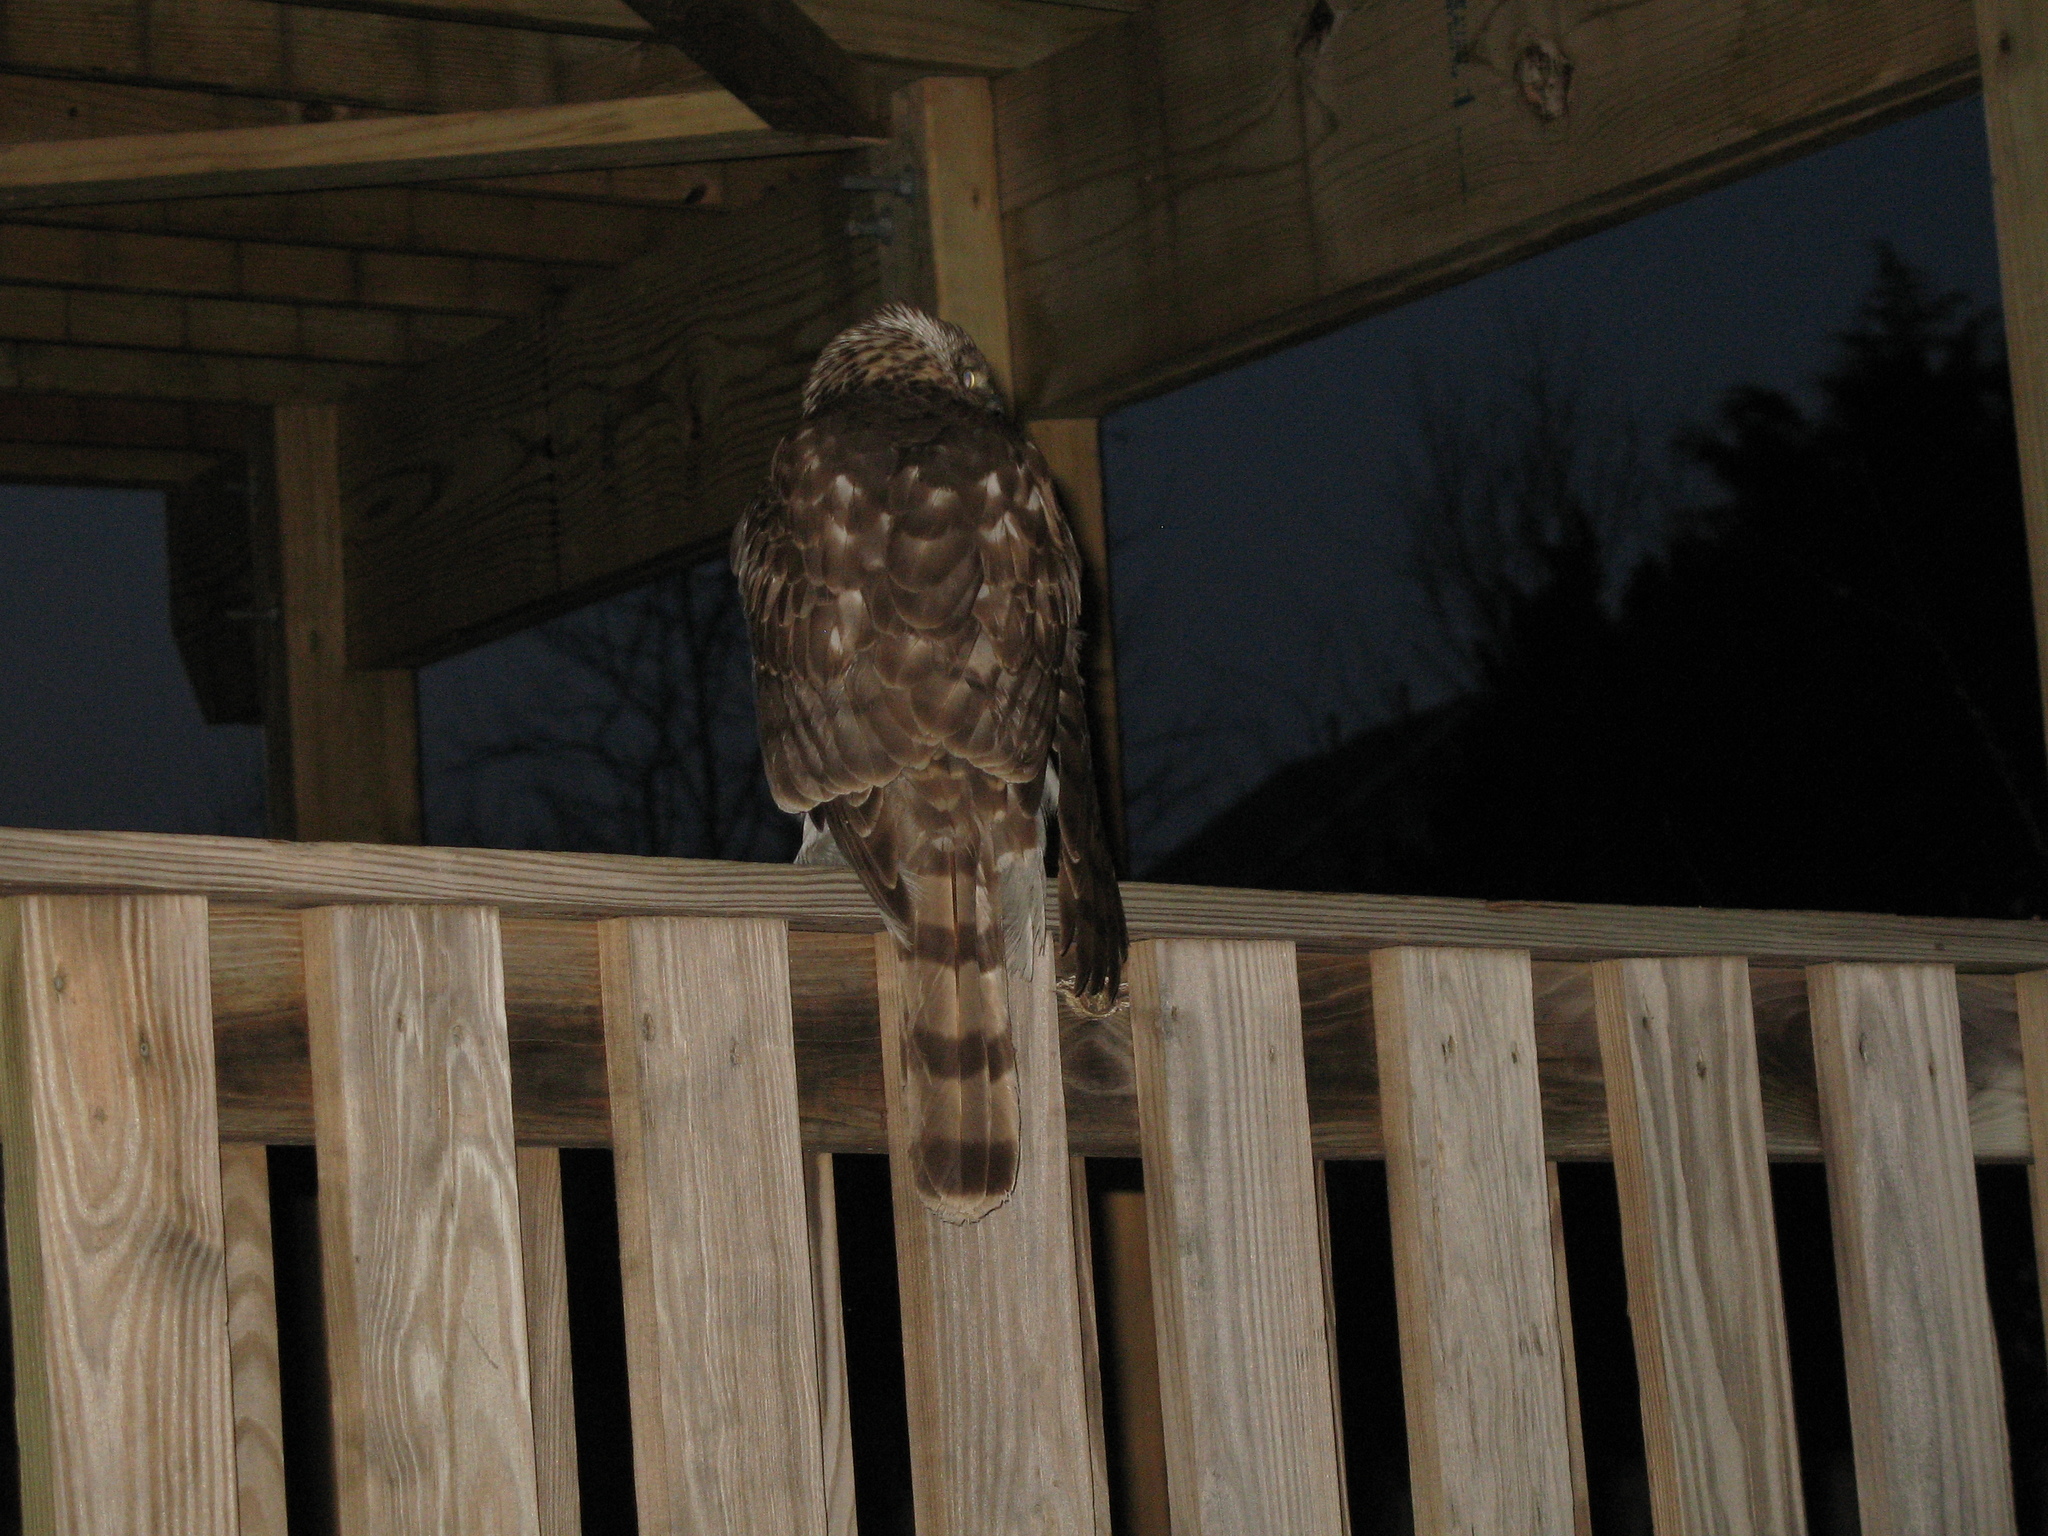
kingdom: Animalia
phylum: Chordata
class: Aves
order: Accipitriformes
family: Accipitridae
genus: Accipiter
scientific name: Accipiter cooperii
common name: Cooper's hawk
